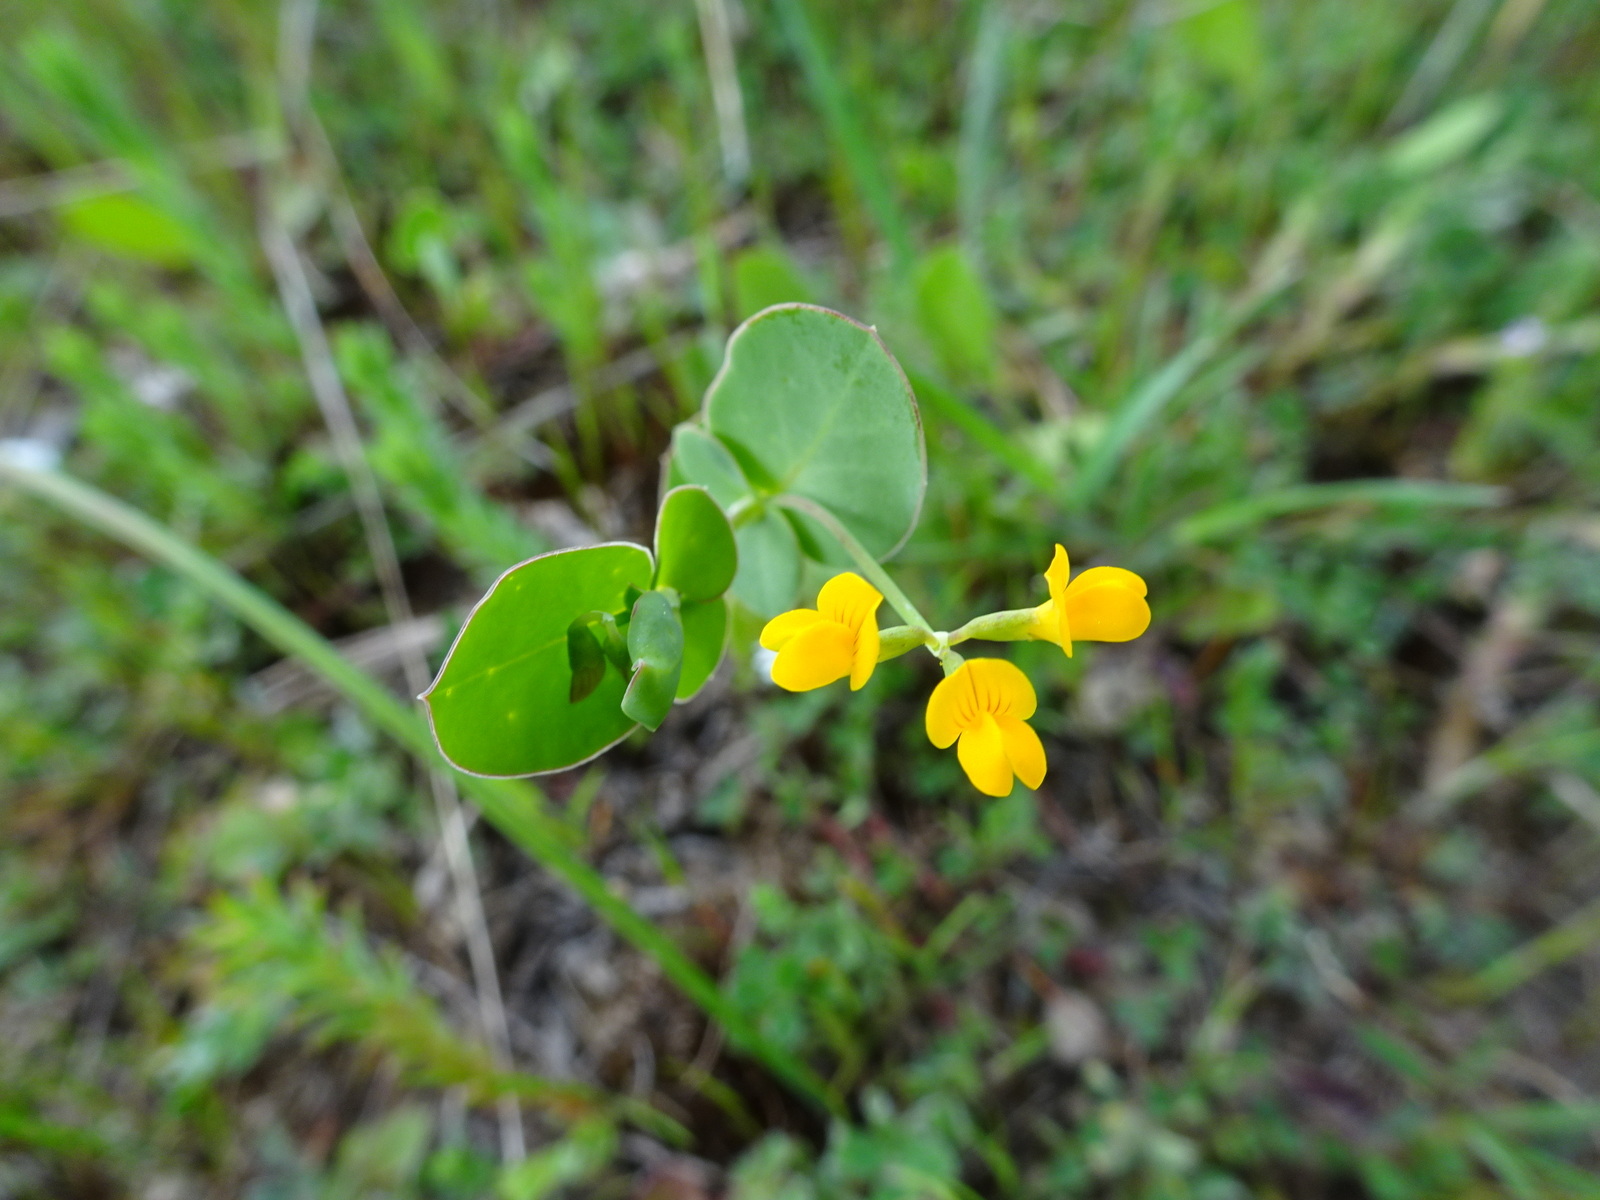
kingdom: Plantae
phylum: Tracheophyta
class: Magnoliopsida
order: Fabales
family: Fabaceae
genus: Coronilla
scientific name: Coronilla scorpioides
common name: Annual scorpion-vetch
